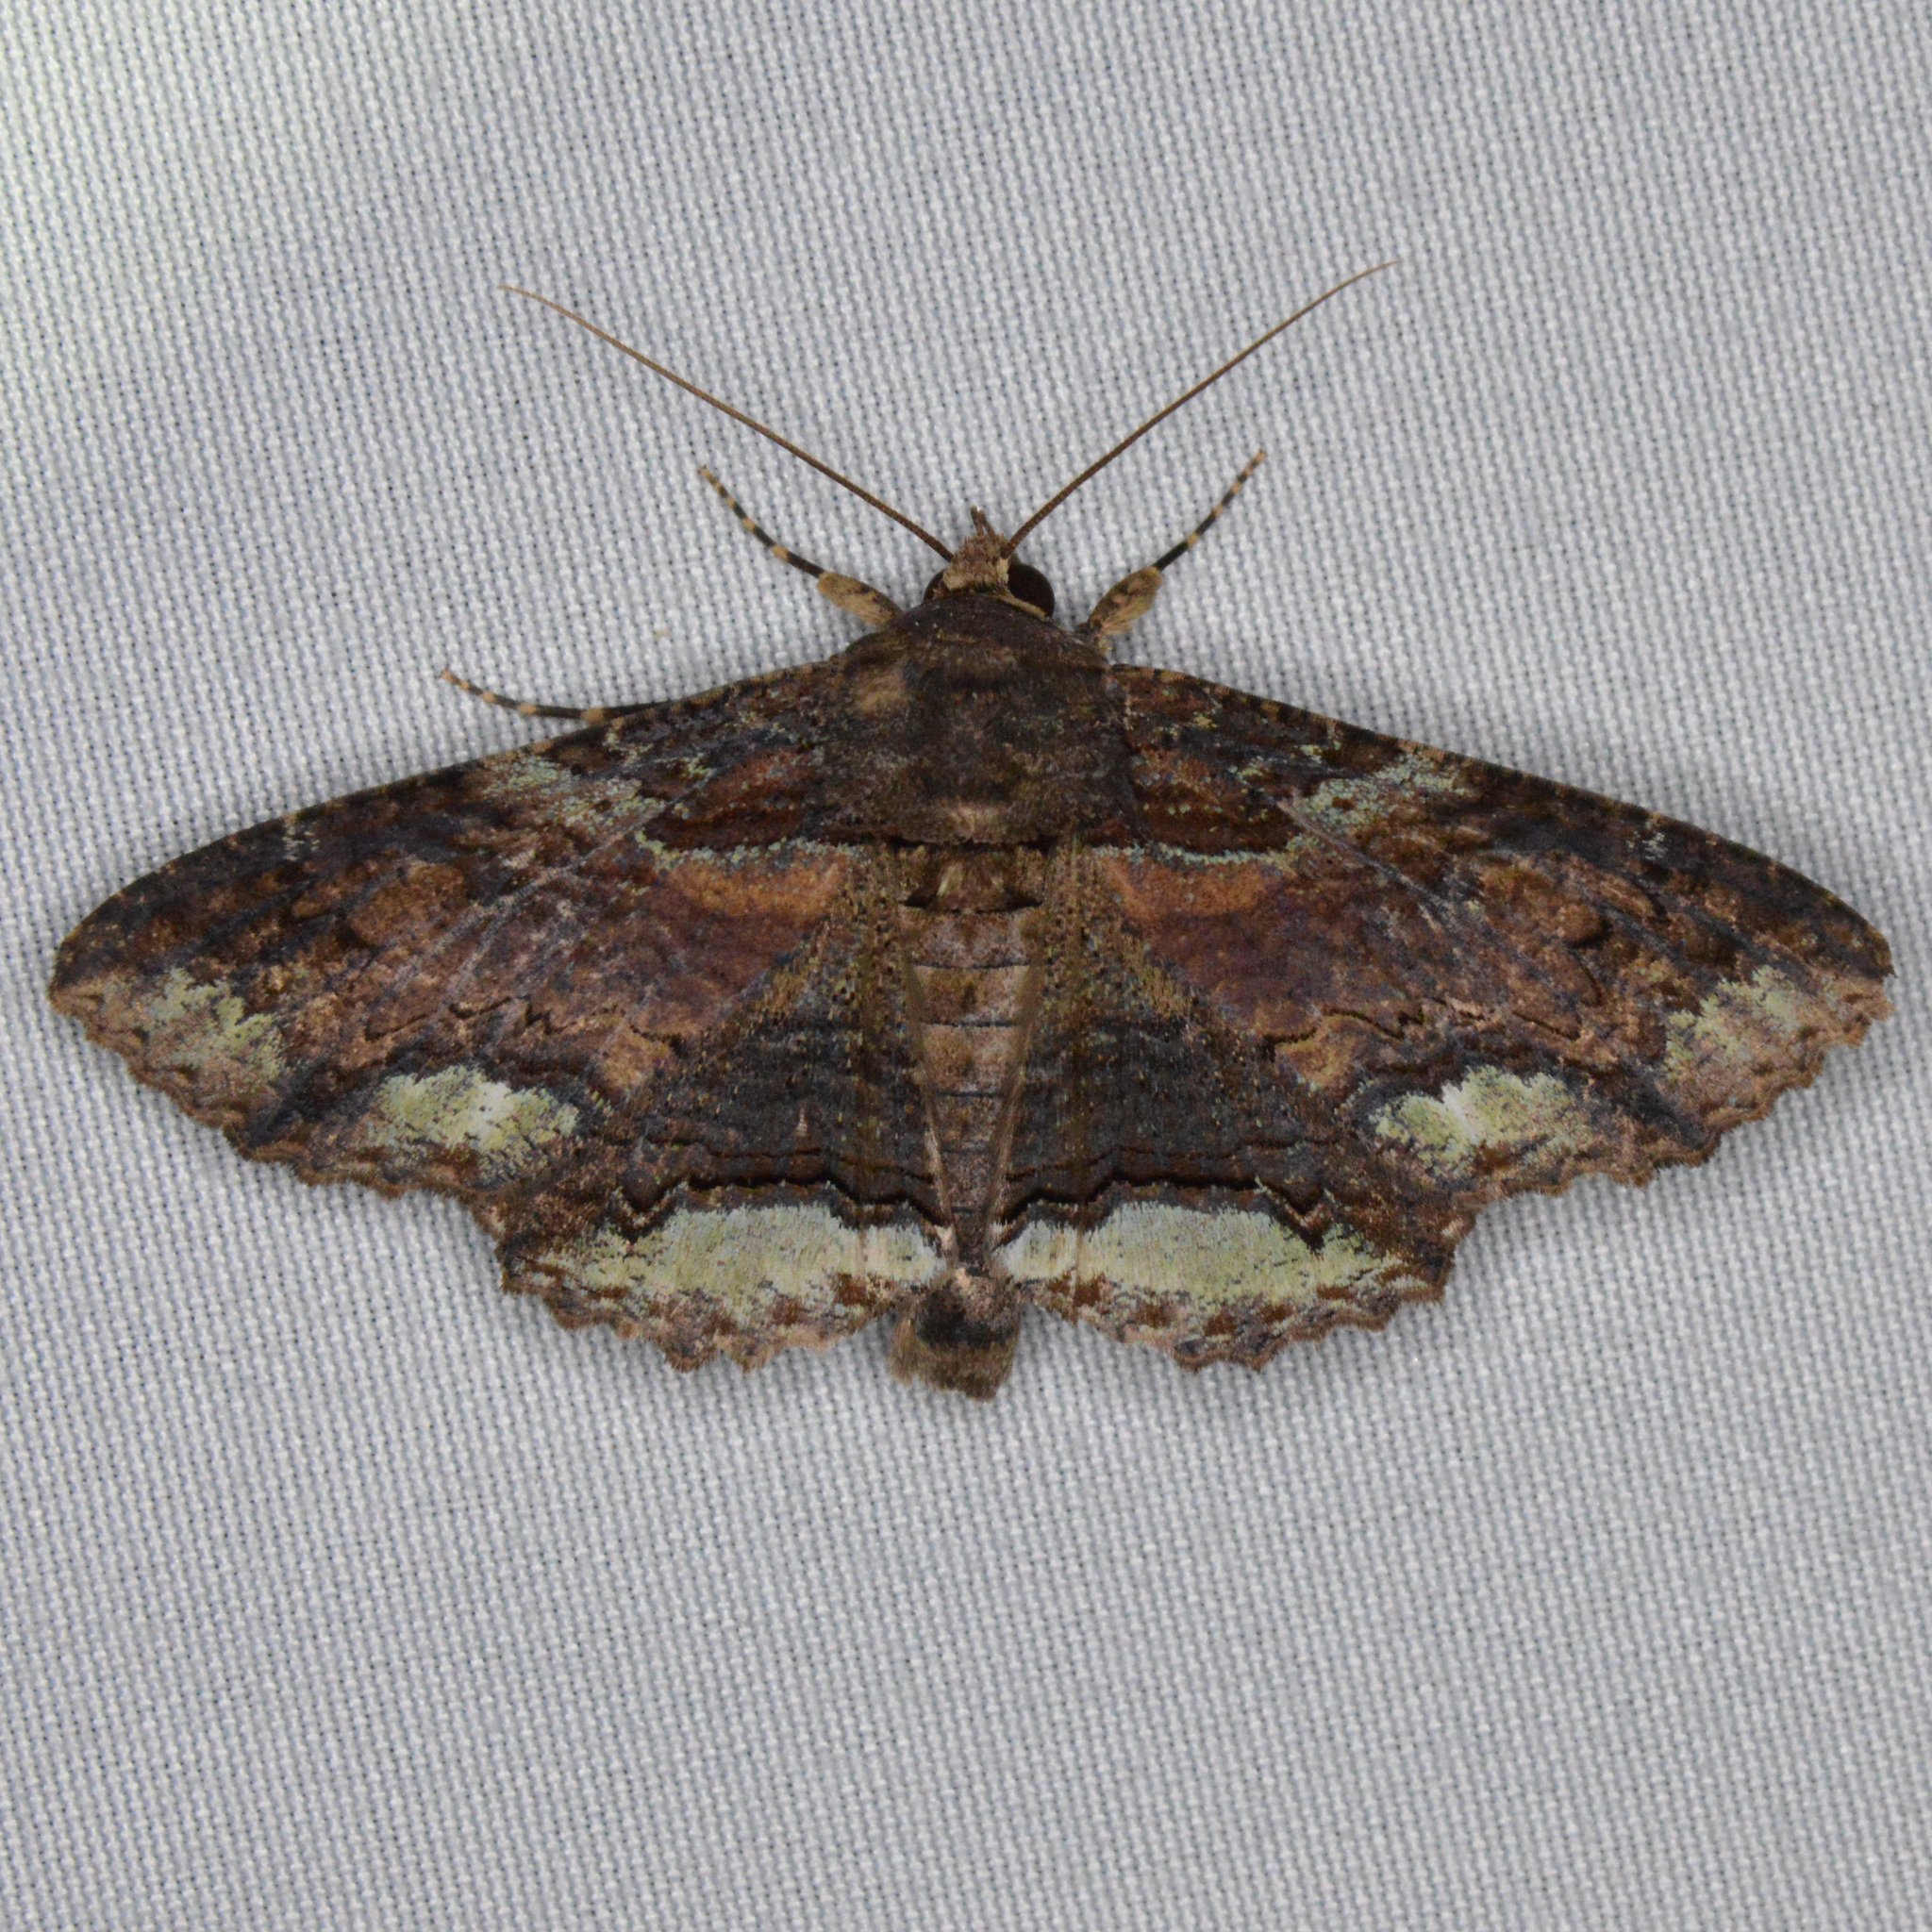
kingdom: Animalia
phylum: Arthropoda
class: Insecta
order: Lepidoptera
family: Erebidae
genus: Zale
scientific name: Zale lunata
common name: Lunate zale moth
